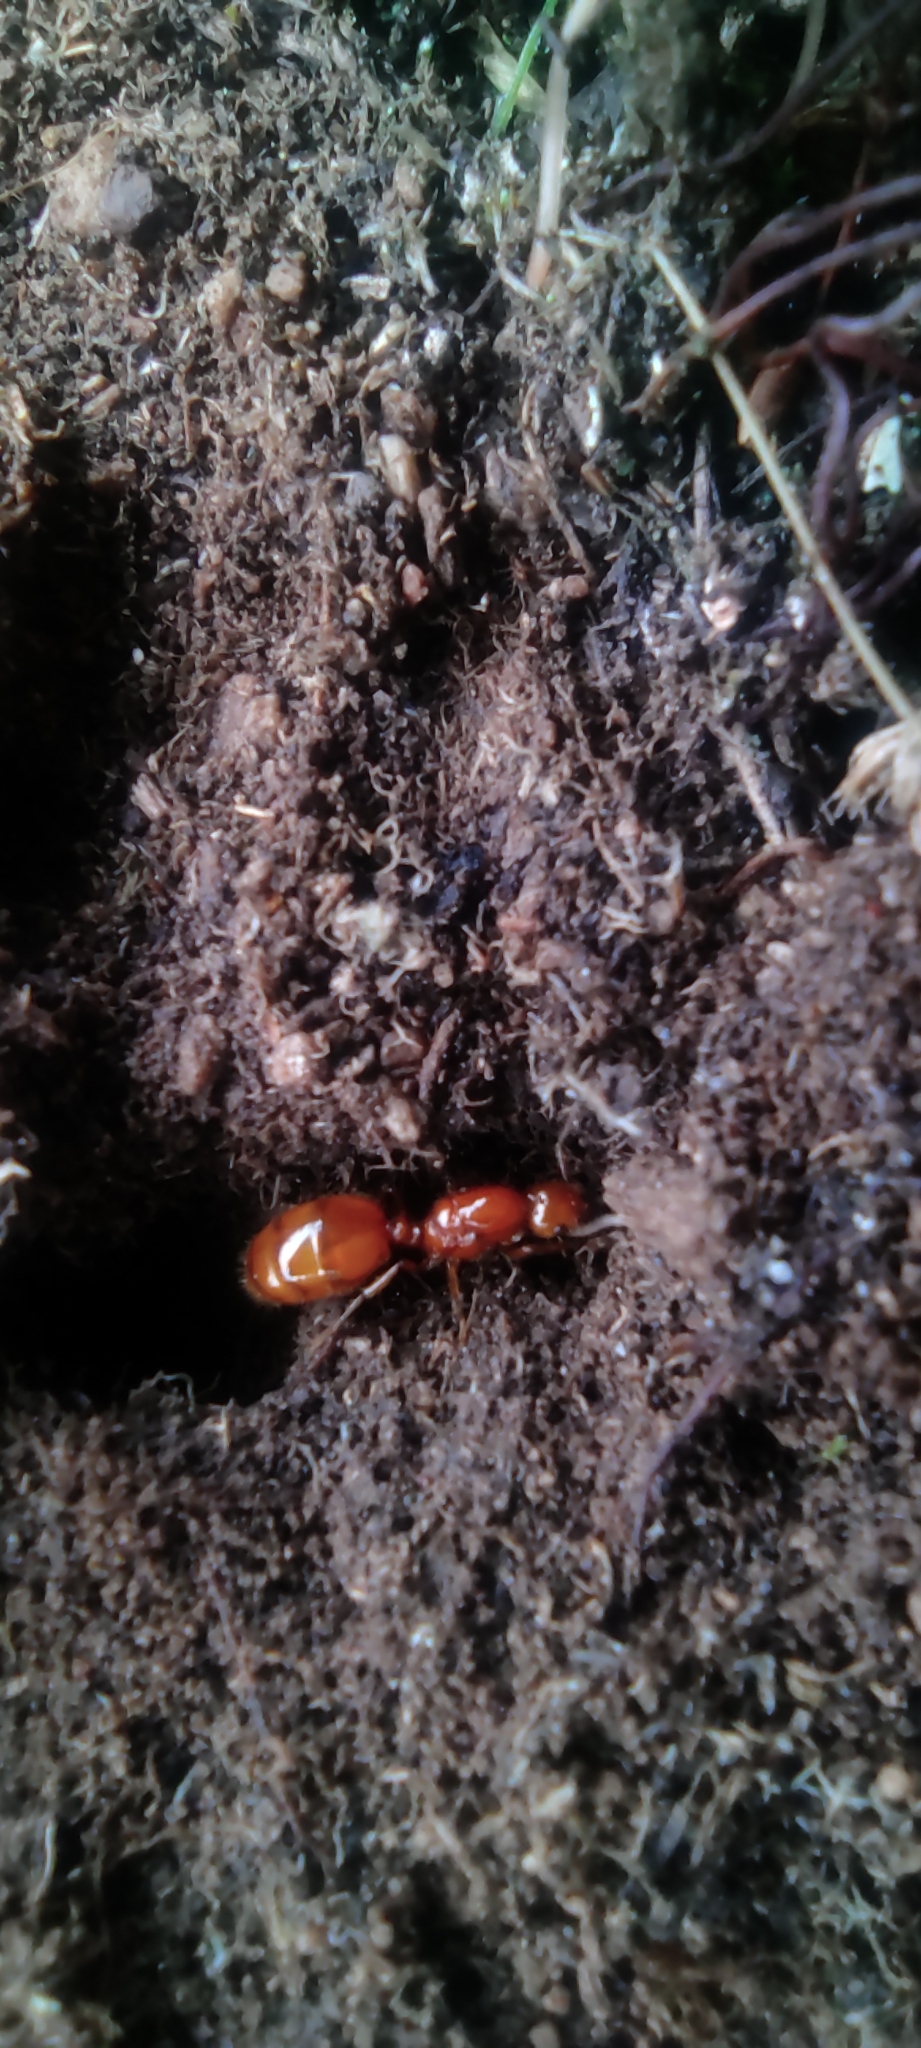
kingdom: Animalia
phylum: Arthropoda
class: Insecta
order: Hymenoptera
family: Formicidae
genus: Solenopsis
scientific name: Solenopsis weyrauchi
